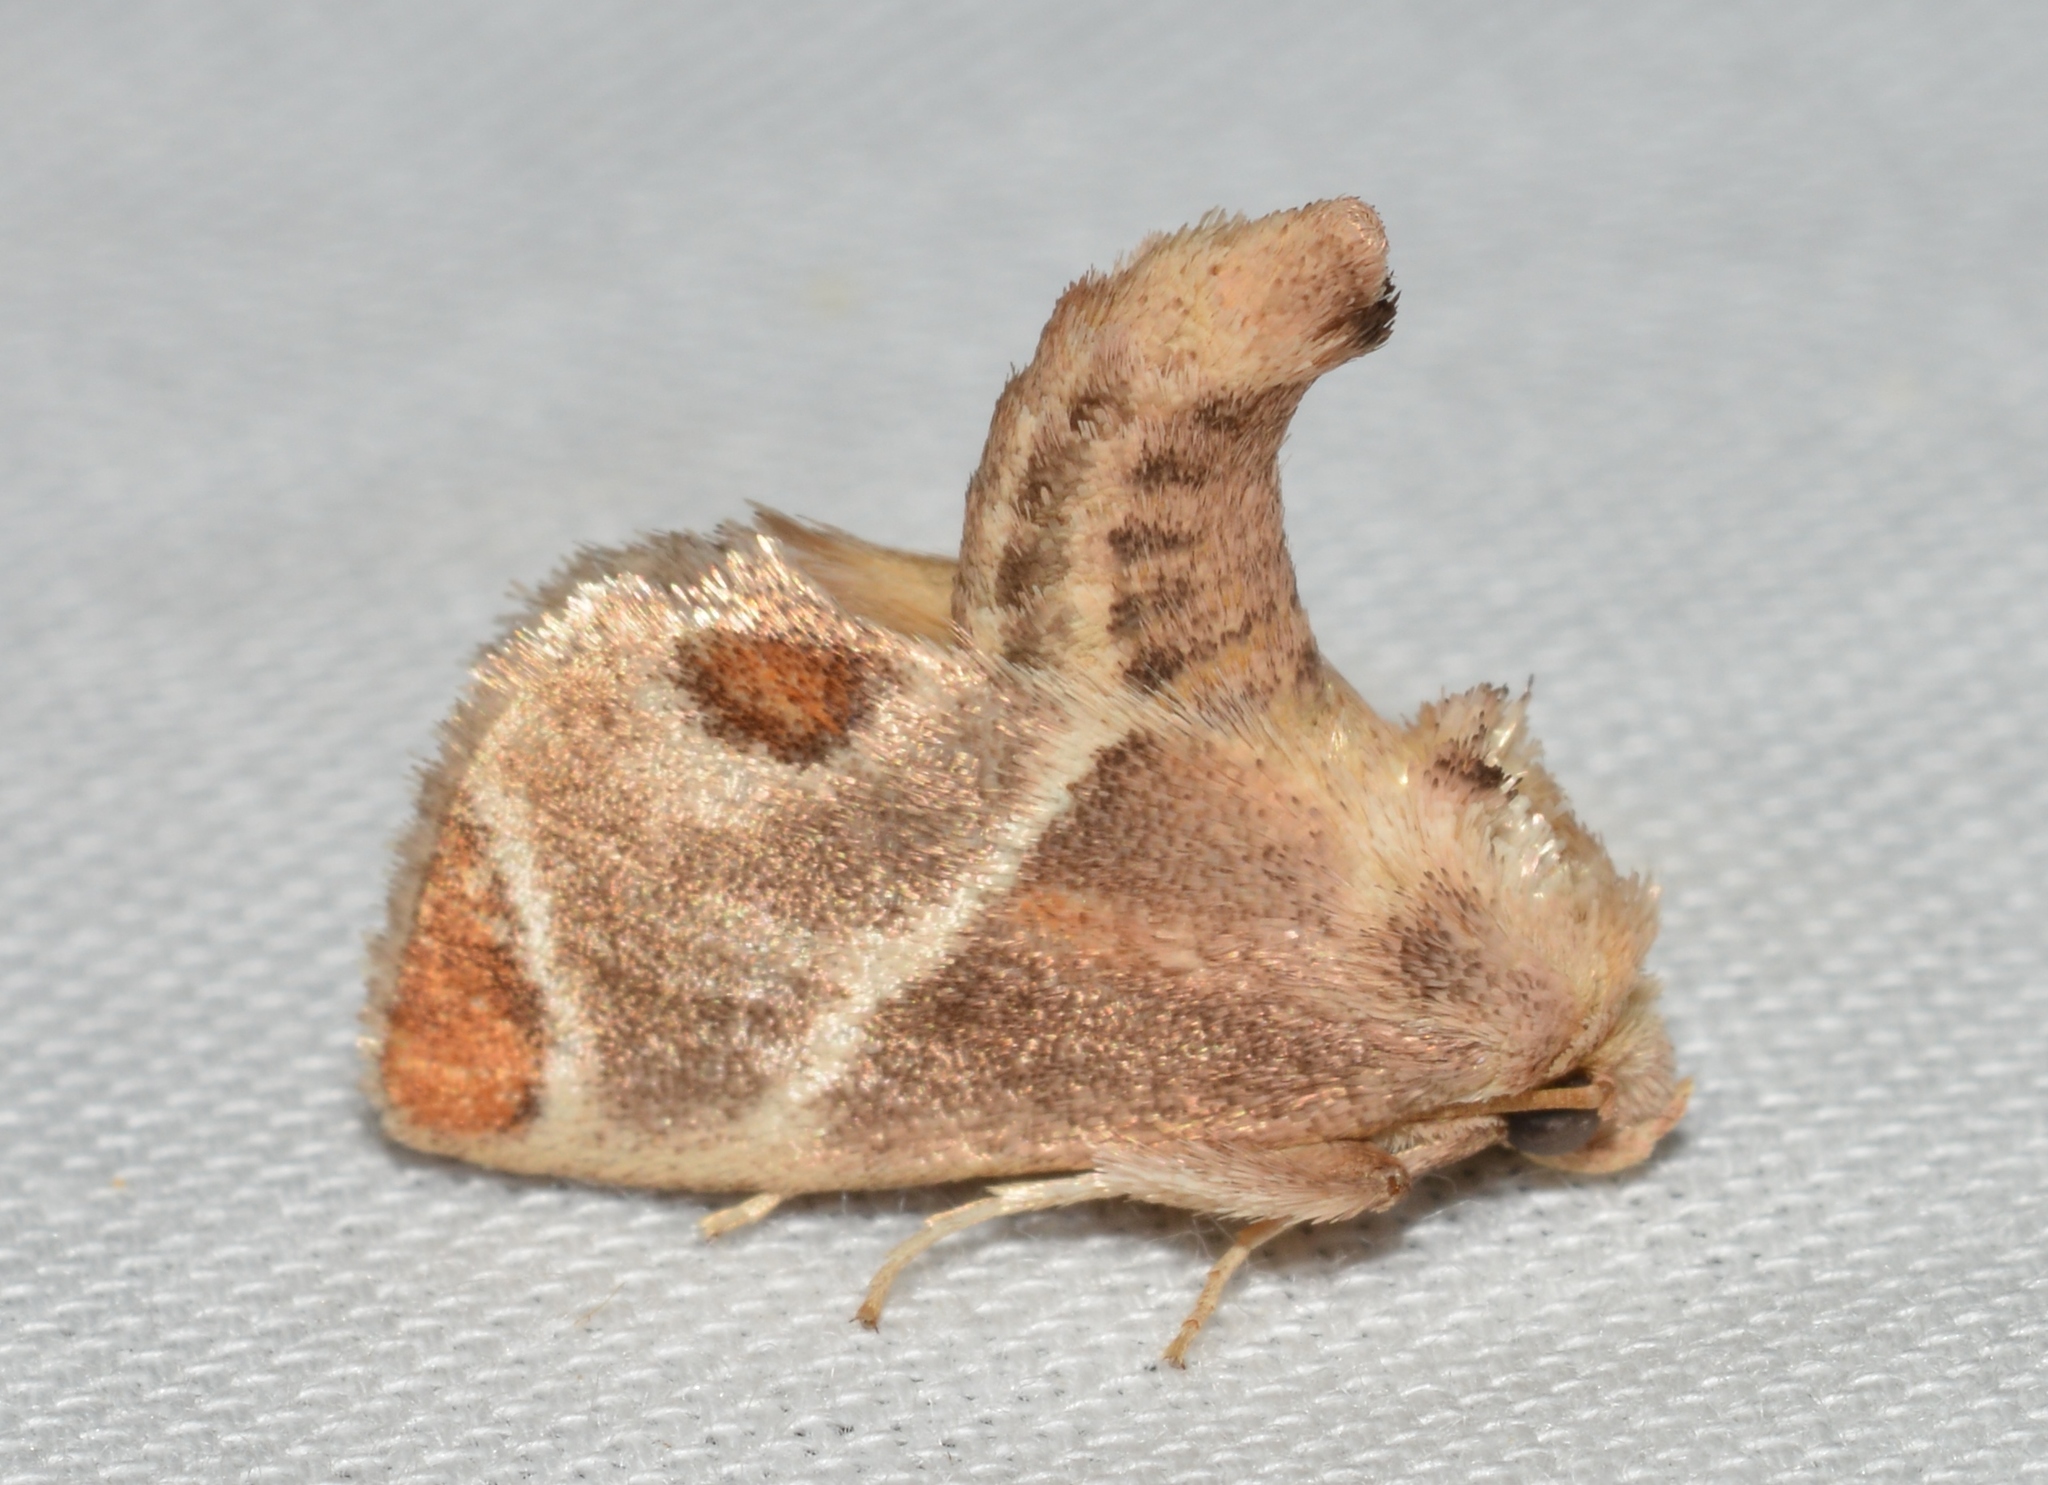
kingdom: Animalia
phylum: Arthropoda
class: Insecta
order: Lepidoptera
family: Limacodidae
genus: Apoda
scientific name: Apoda biguttata
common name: Shagreened slug moth
